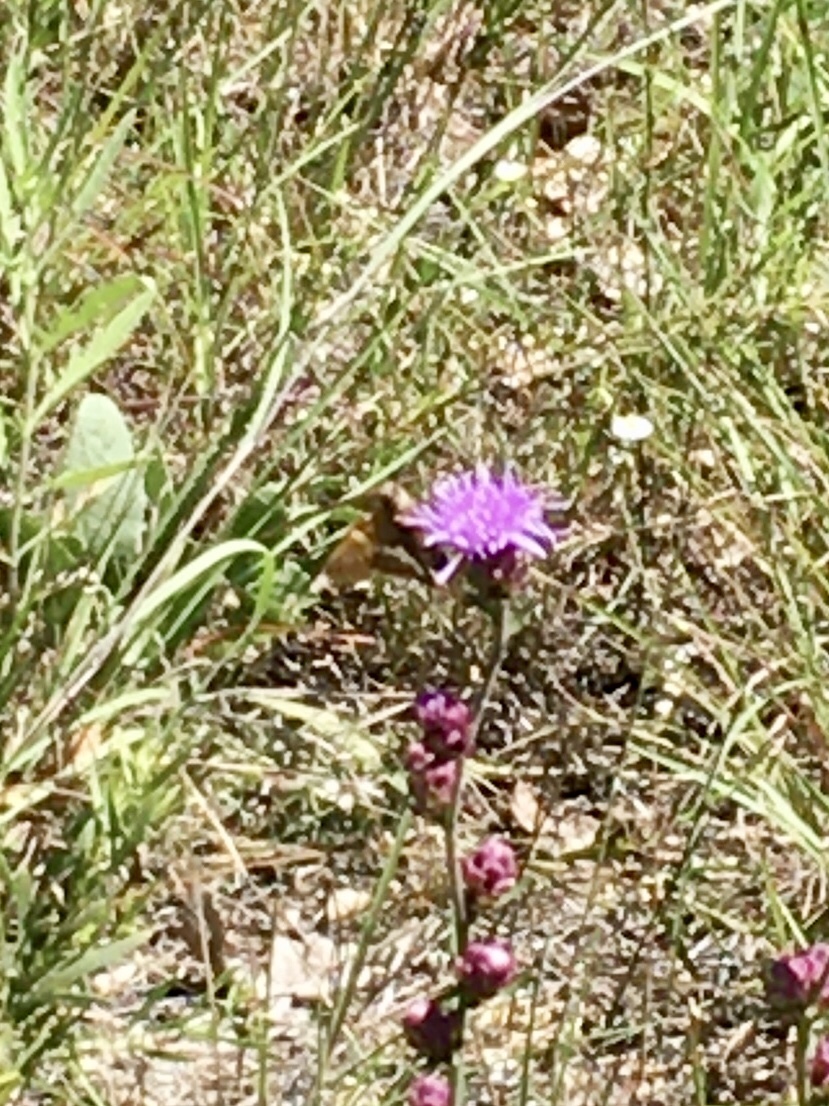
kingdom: Animalia
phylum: Arthropoda
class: Insecta
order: Lepidoptera
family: Hesperiidae
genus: Epargyreus
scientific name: Epargyreus clarus
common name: Silver-spotted skipper
